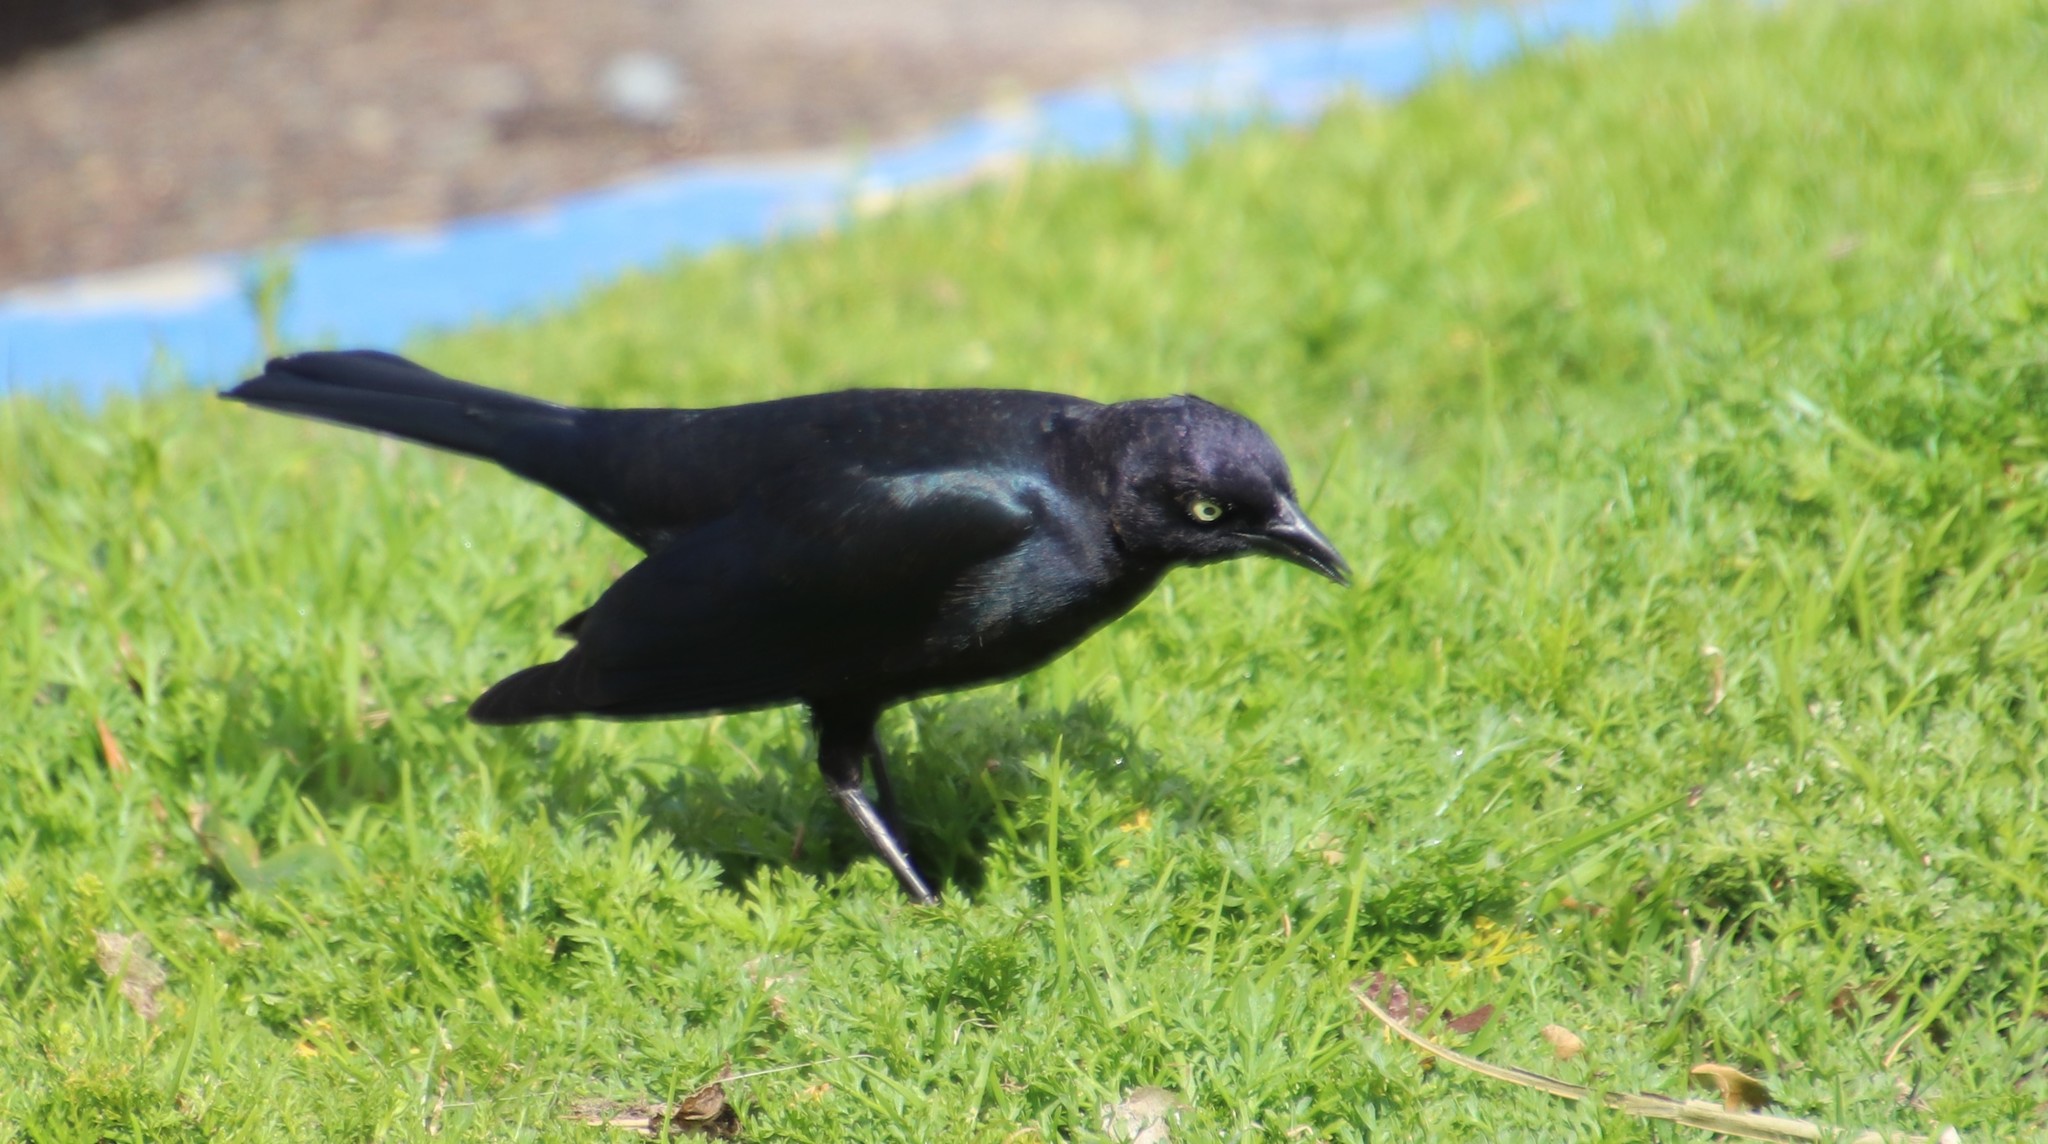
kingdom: Animalia
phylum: Chordata
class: Aves
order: Passeriformes
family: Icteridae
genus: Euphagus
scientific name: Euphagus cyanocephalus
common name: Brewer's blackbird
